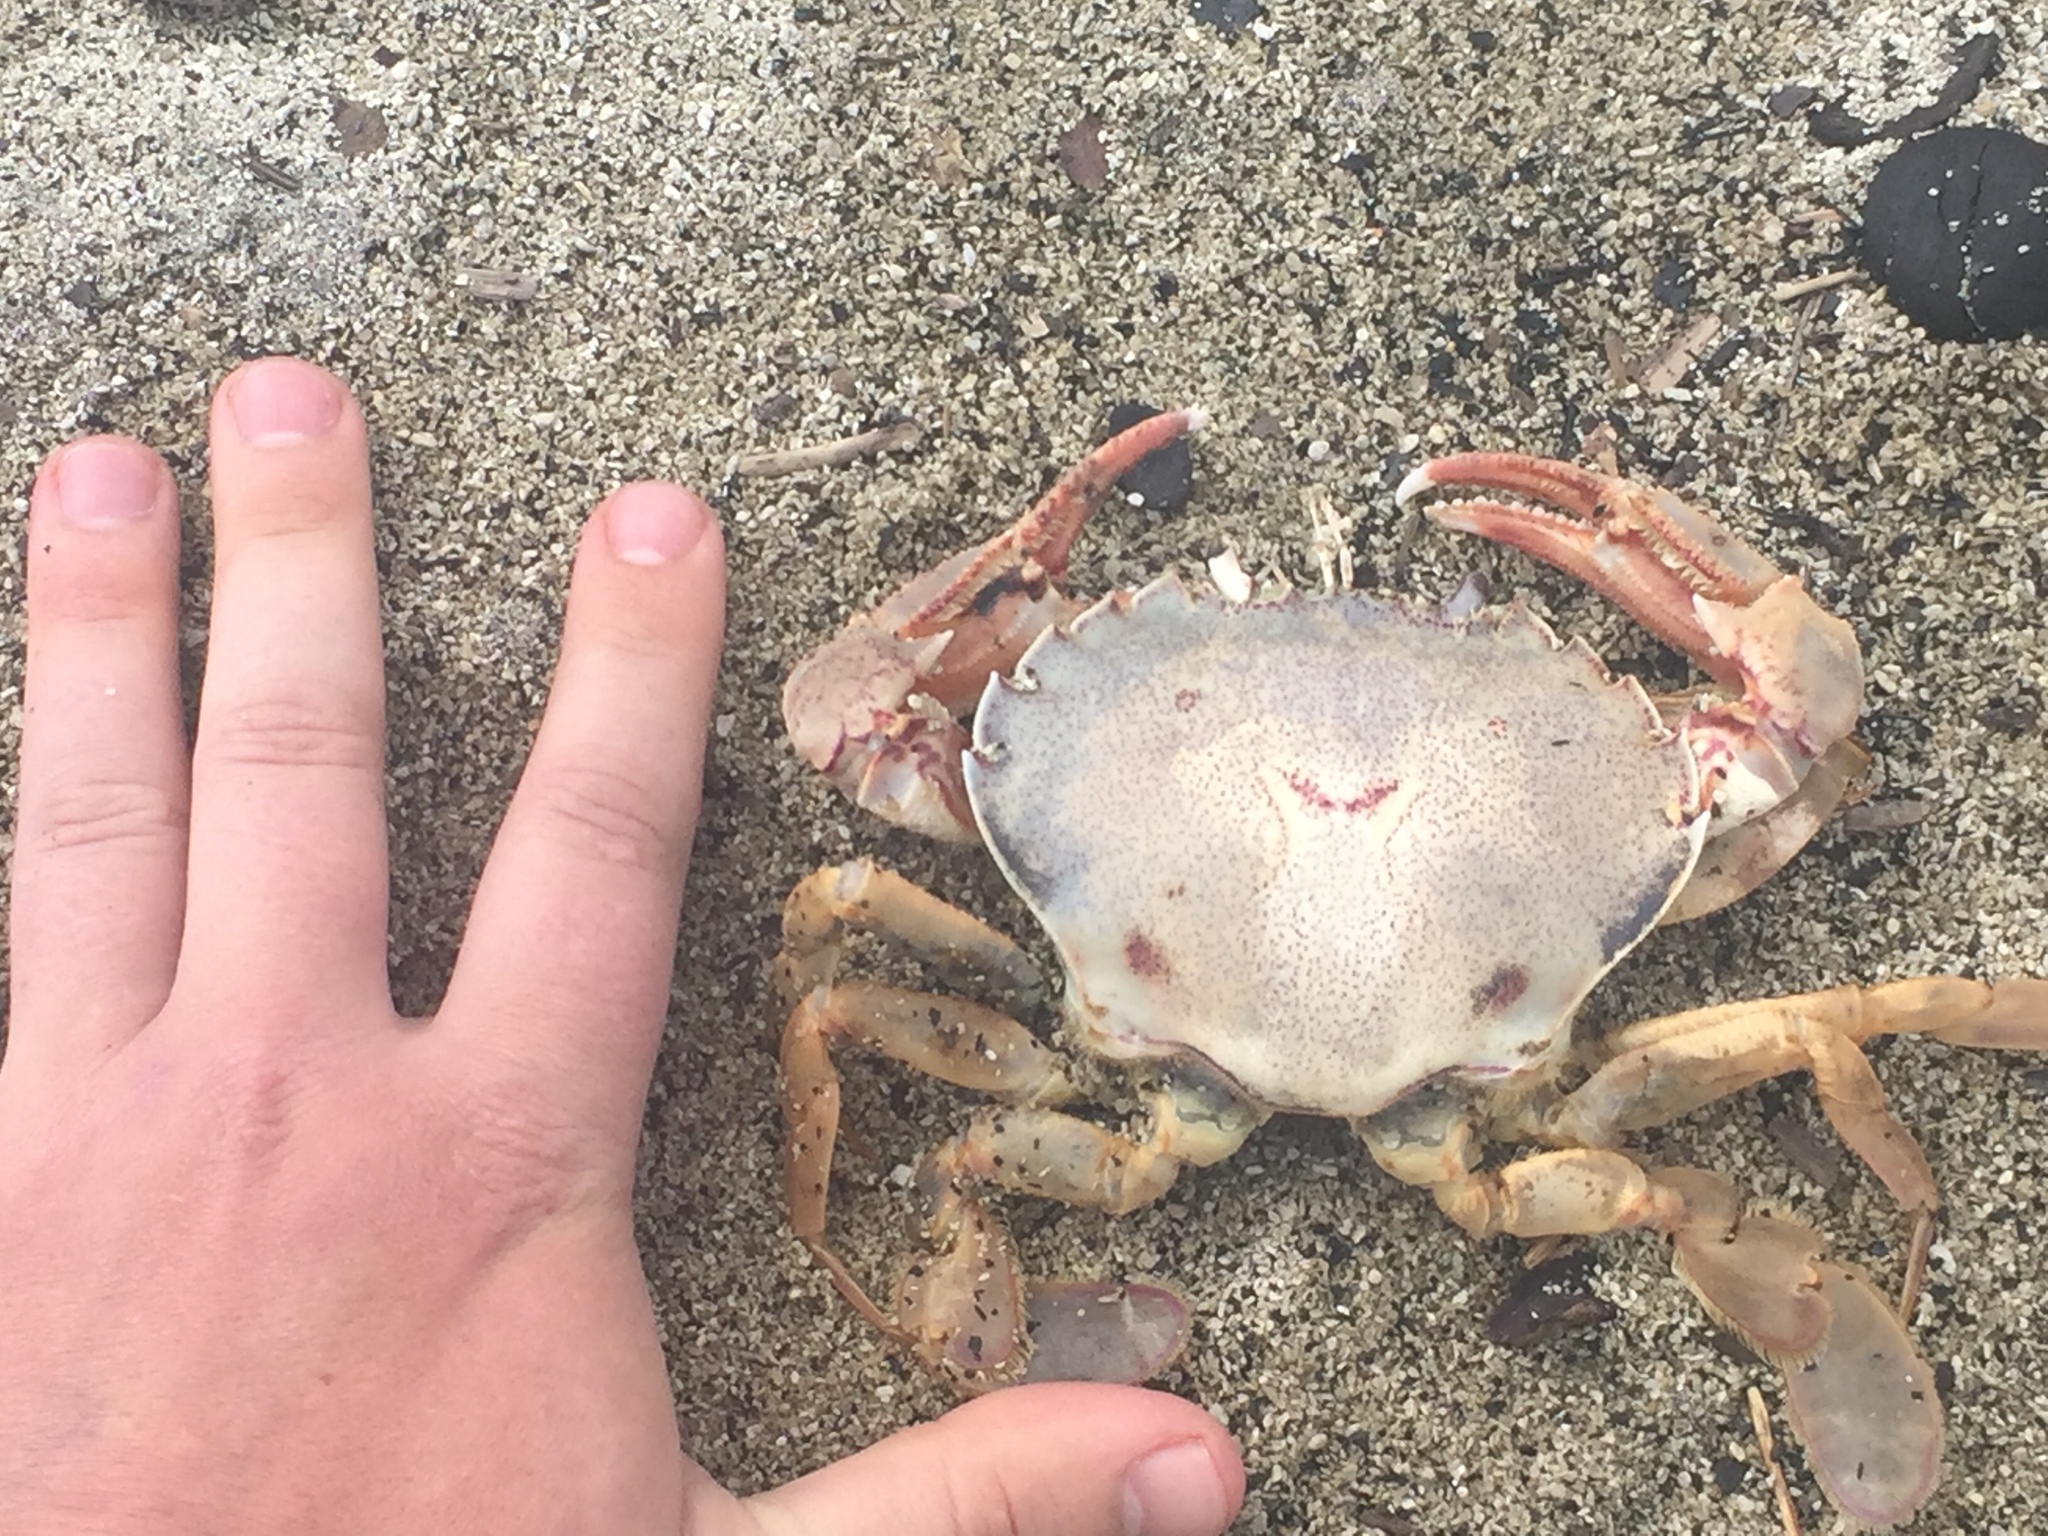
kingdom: Animalia
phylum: Arthropoda
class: Malacostraca
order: Decapoda
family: Ovalipidae
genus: Ovalipes
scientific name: Ovalipes catharus
